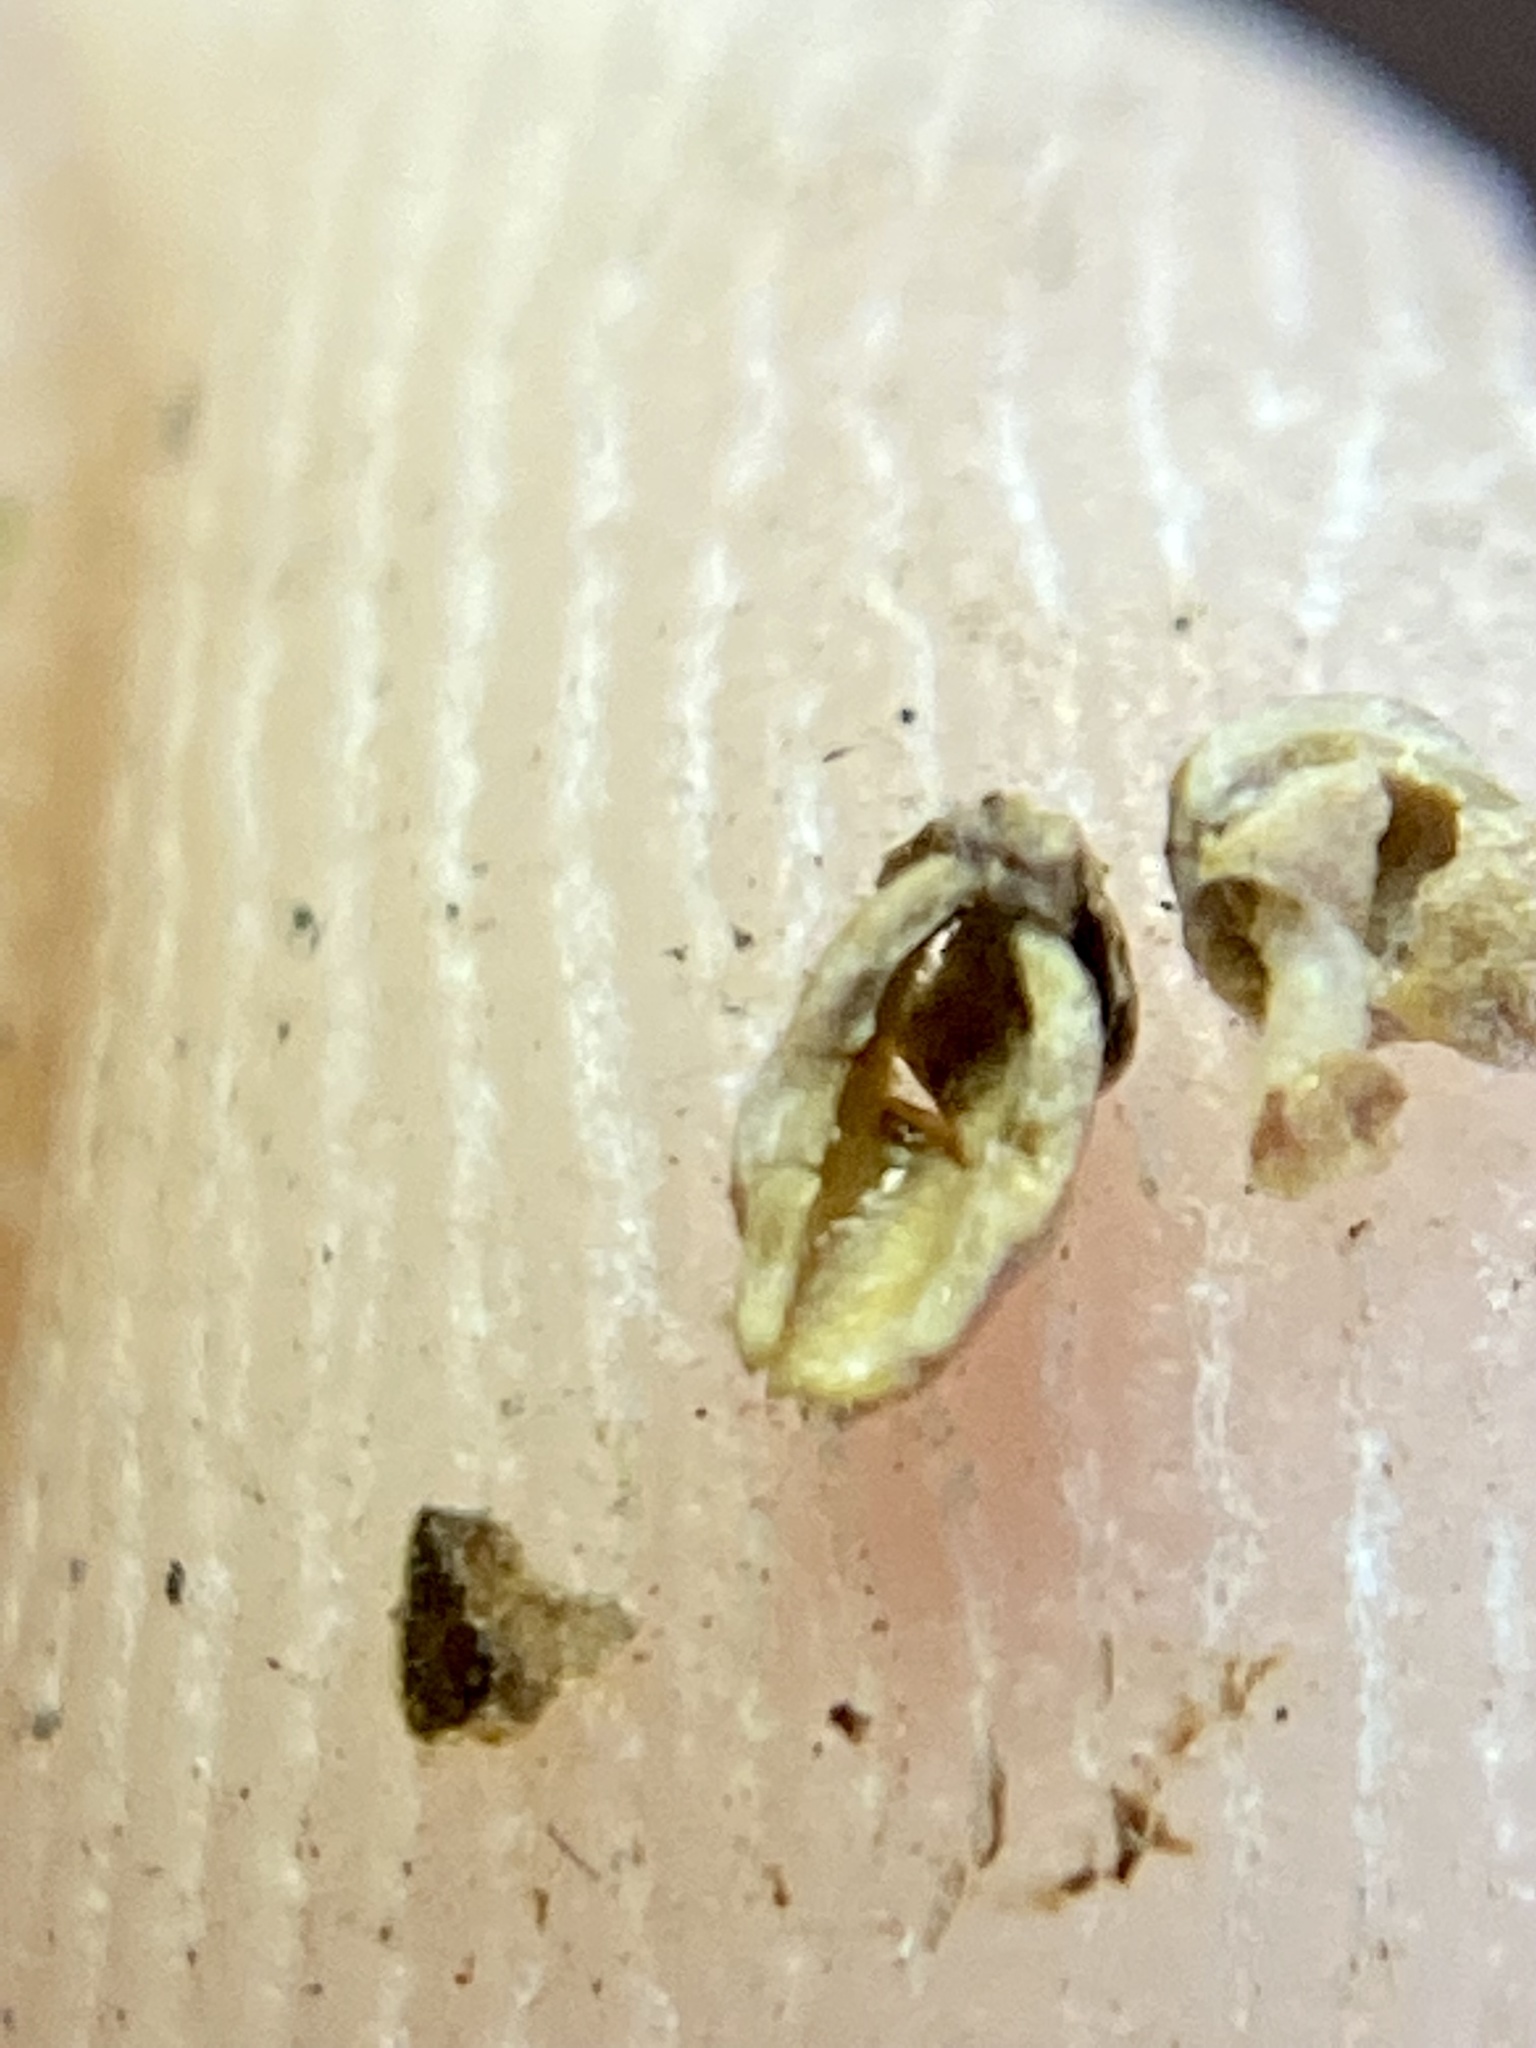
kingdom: Animalia
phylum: Arthropoda
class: Insecta
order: Diptera
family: Cecidomyiidae
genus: Celticecis
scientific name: Celticecis globosa
